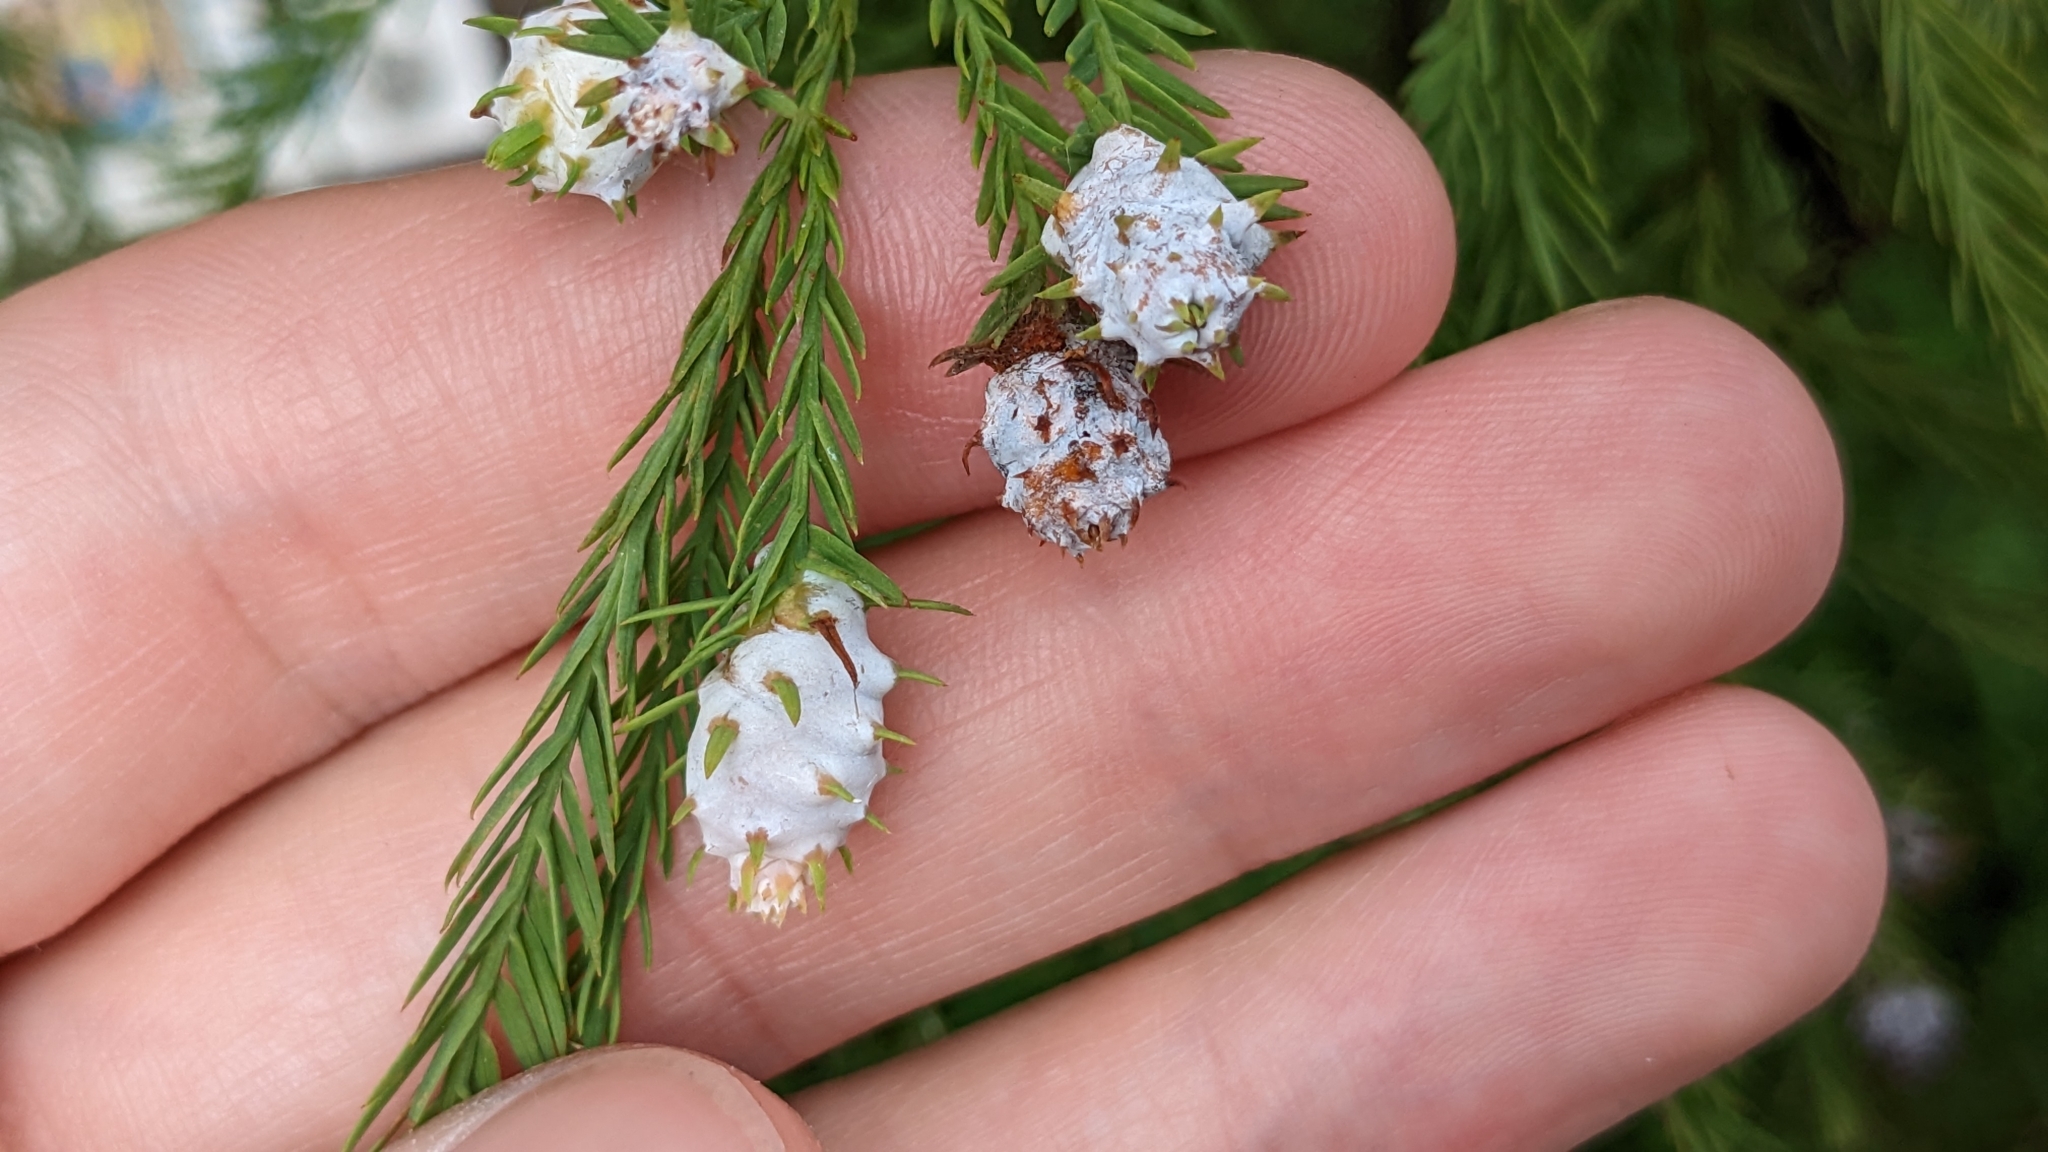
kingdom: Animalia
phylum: Arthropoda
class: Insecta
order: Diptera
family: Cecidomyiidae
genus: Taxodiomyia
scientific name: Taxodiomyia cupressiananassa
